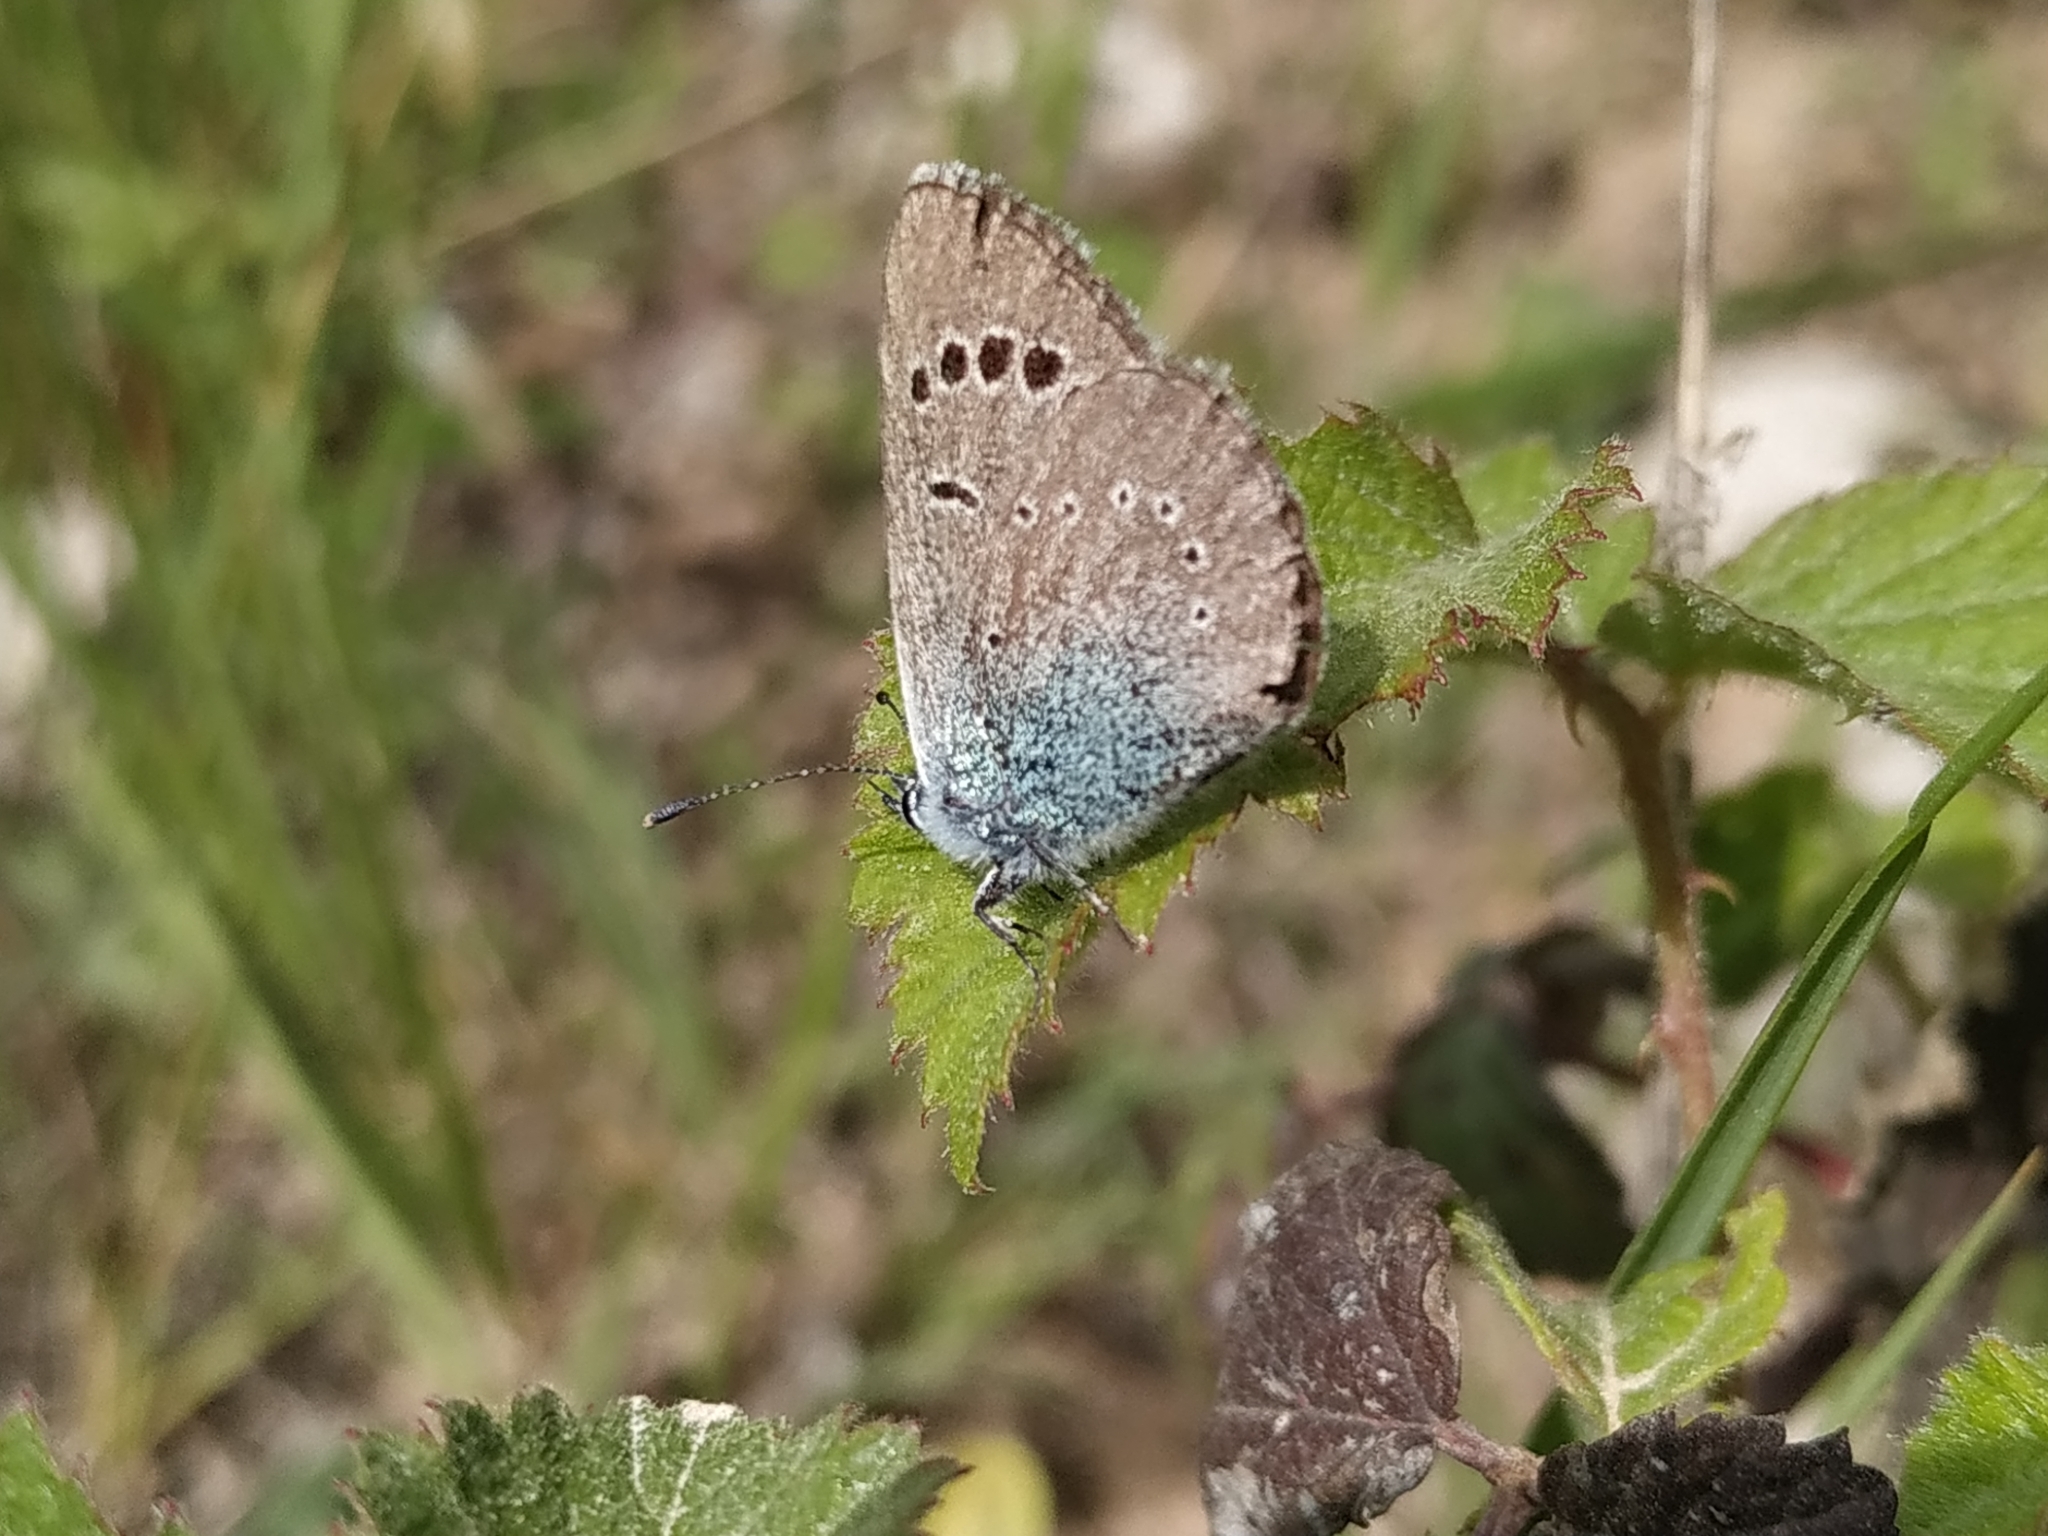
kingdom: Animalia
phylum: Arthropoda
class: Insecta
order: Lepidoptera
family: Lycaenidae
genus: Glaucopsyche
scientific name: Glaucopsyche alexis
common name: Green-underside blue
